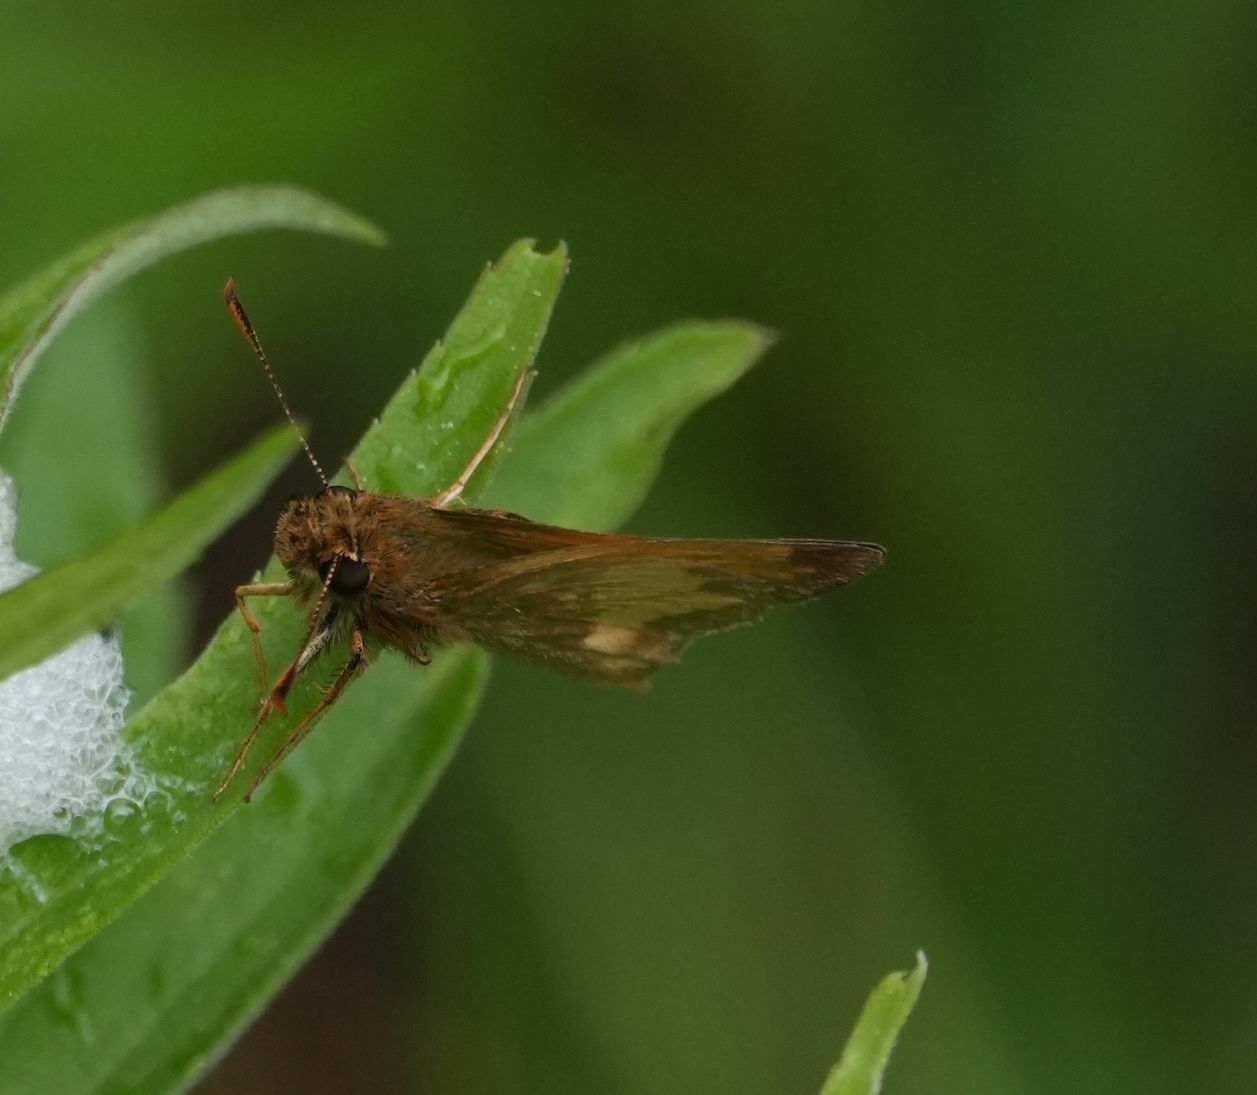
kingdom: Animalia
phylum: Arthropoda
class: Insecta
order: Lepidoptera
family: Hesperiidae
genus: Lon
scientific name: Lon hobomok
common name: Hobomok skipper
